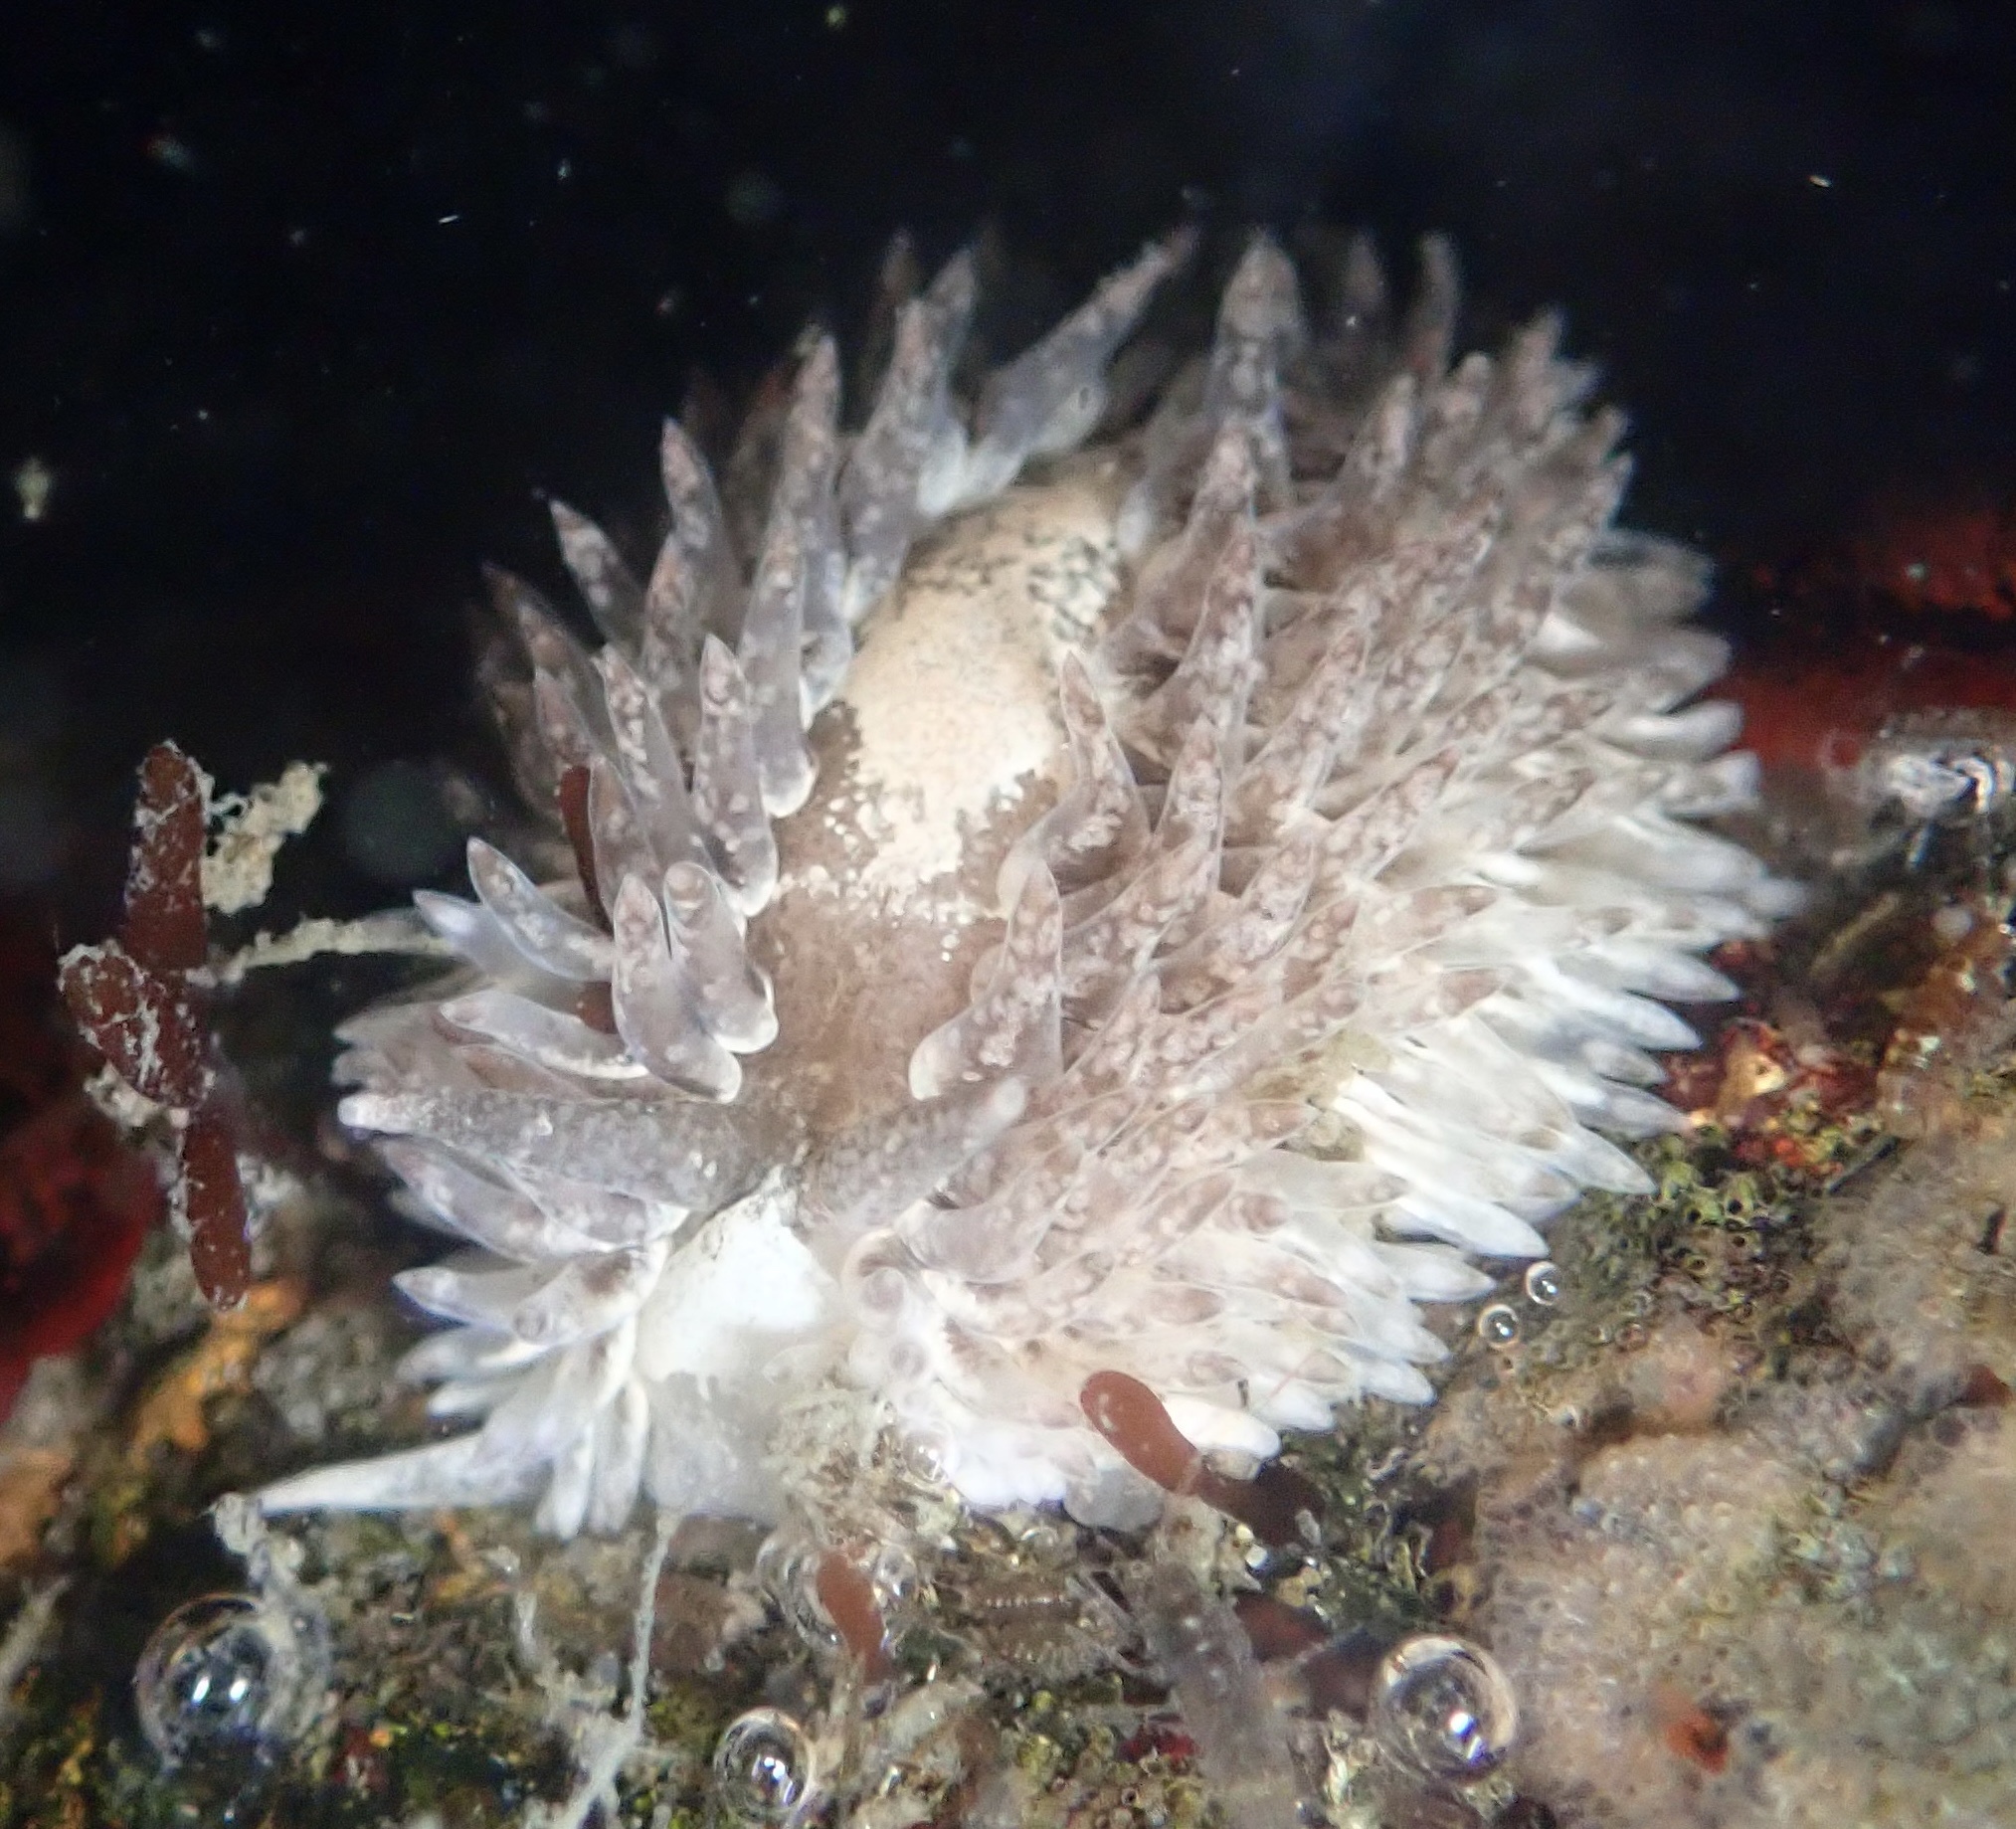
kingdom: Animalia
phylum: Mollusca
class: Gastropoda
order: Nudibranchia
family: Aeolidiidae
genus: Aeolidia
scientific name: Aeolidia loui
